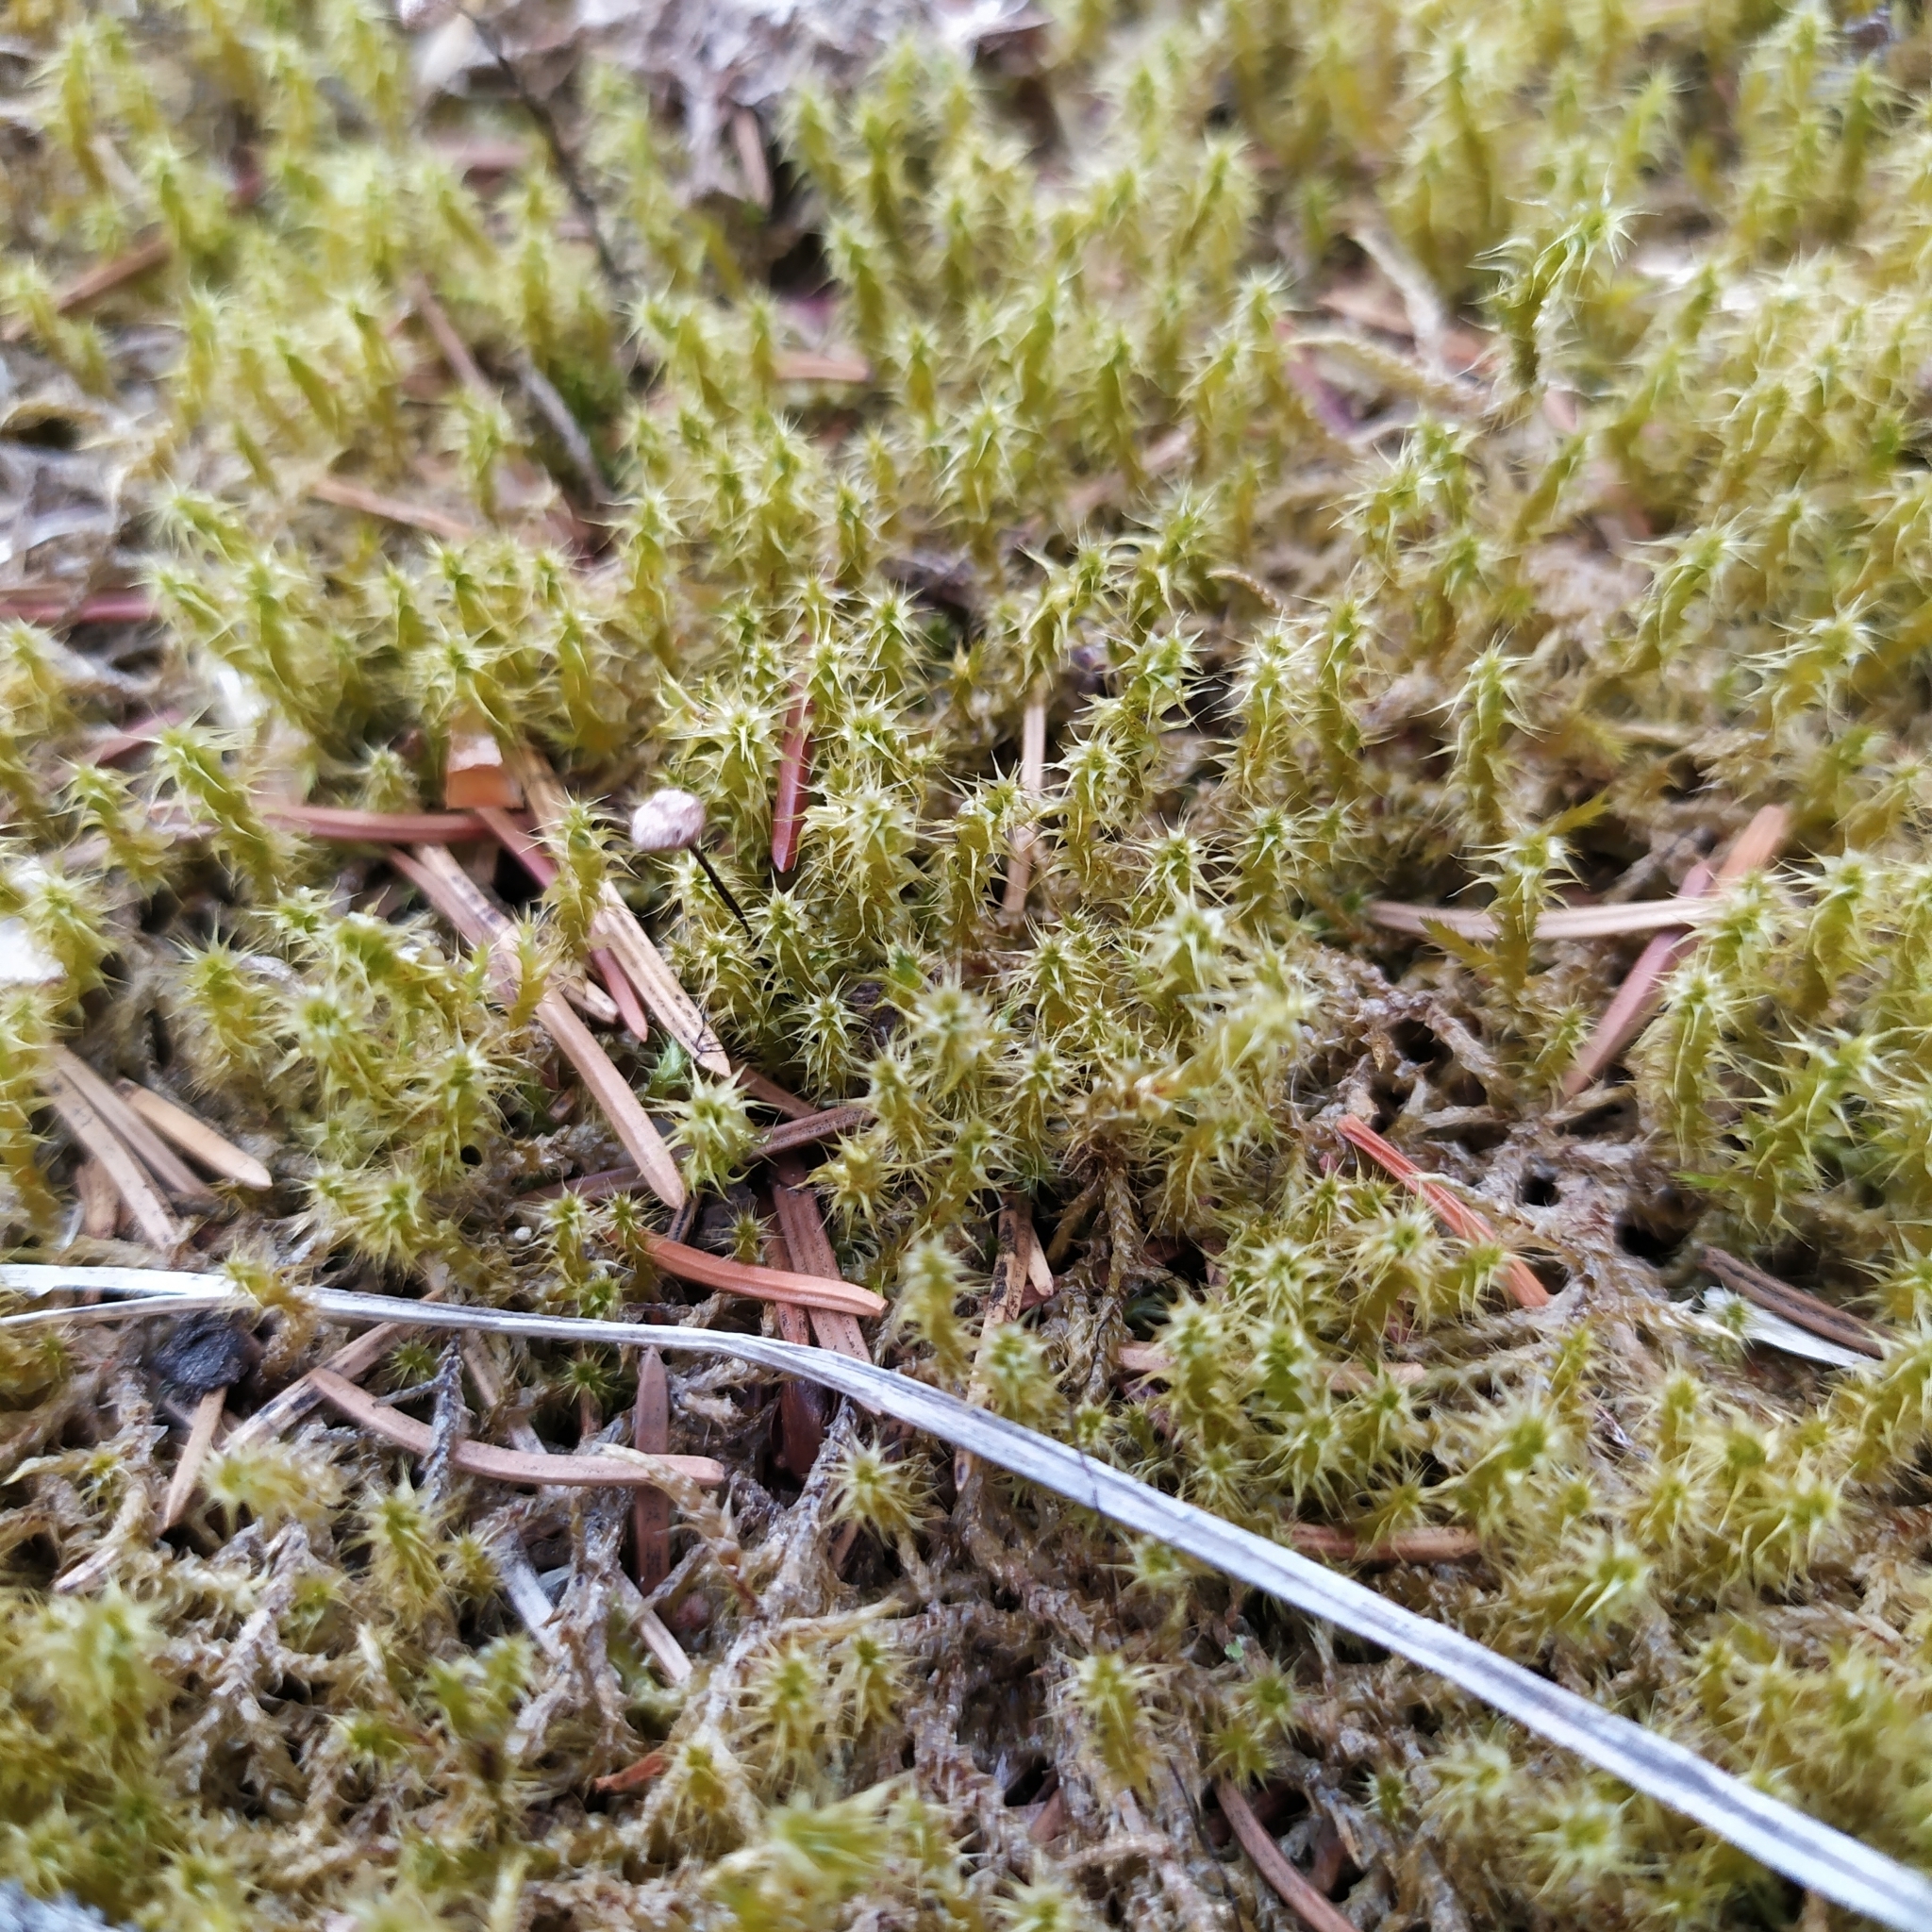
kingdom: Plantae
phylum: Bryophyta
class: Bryopsida
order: Hypnales
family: Hylocomiaceae
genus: Rhytidiadelphus
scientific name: Rhytidiadelphus squarrosus
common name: Springy turf-moss
